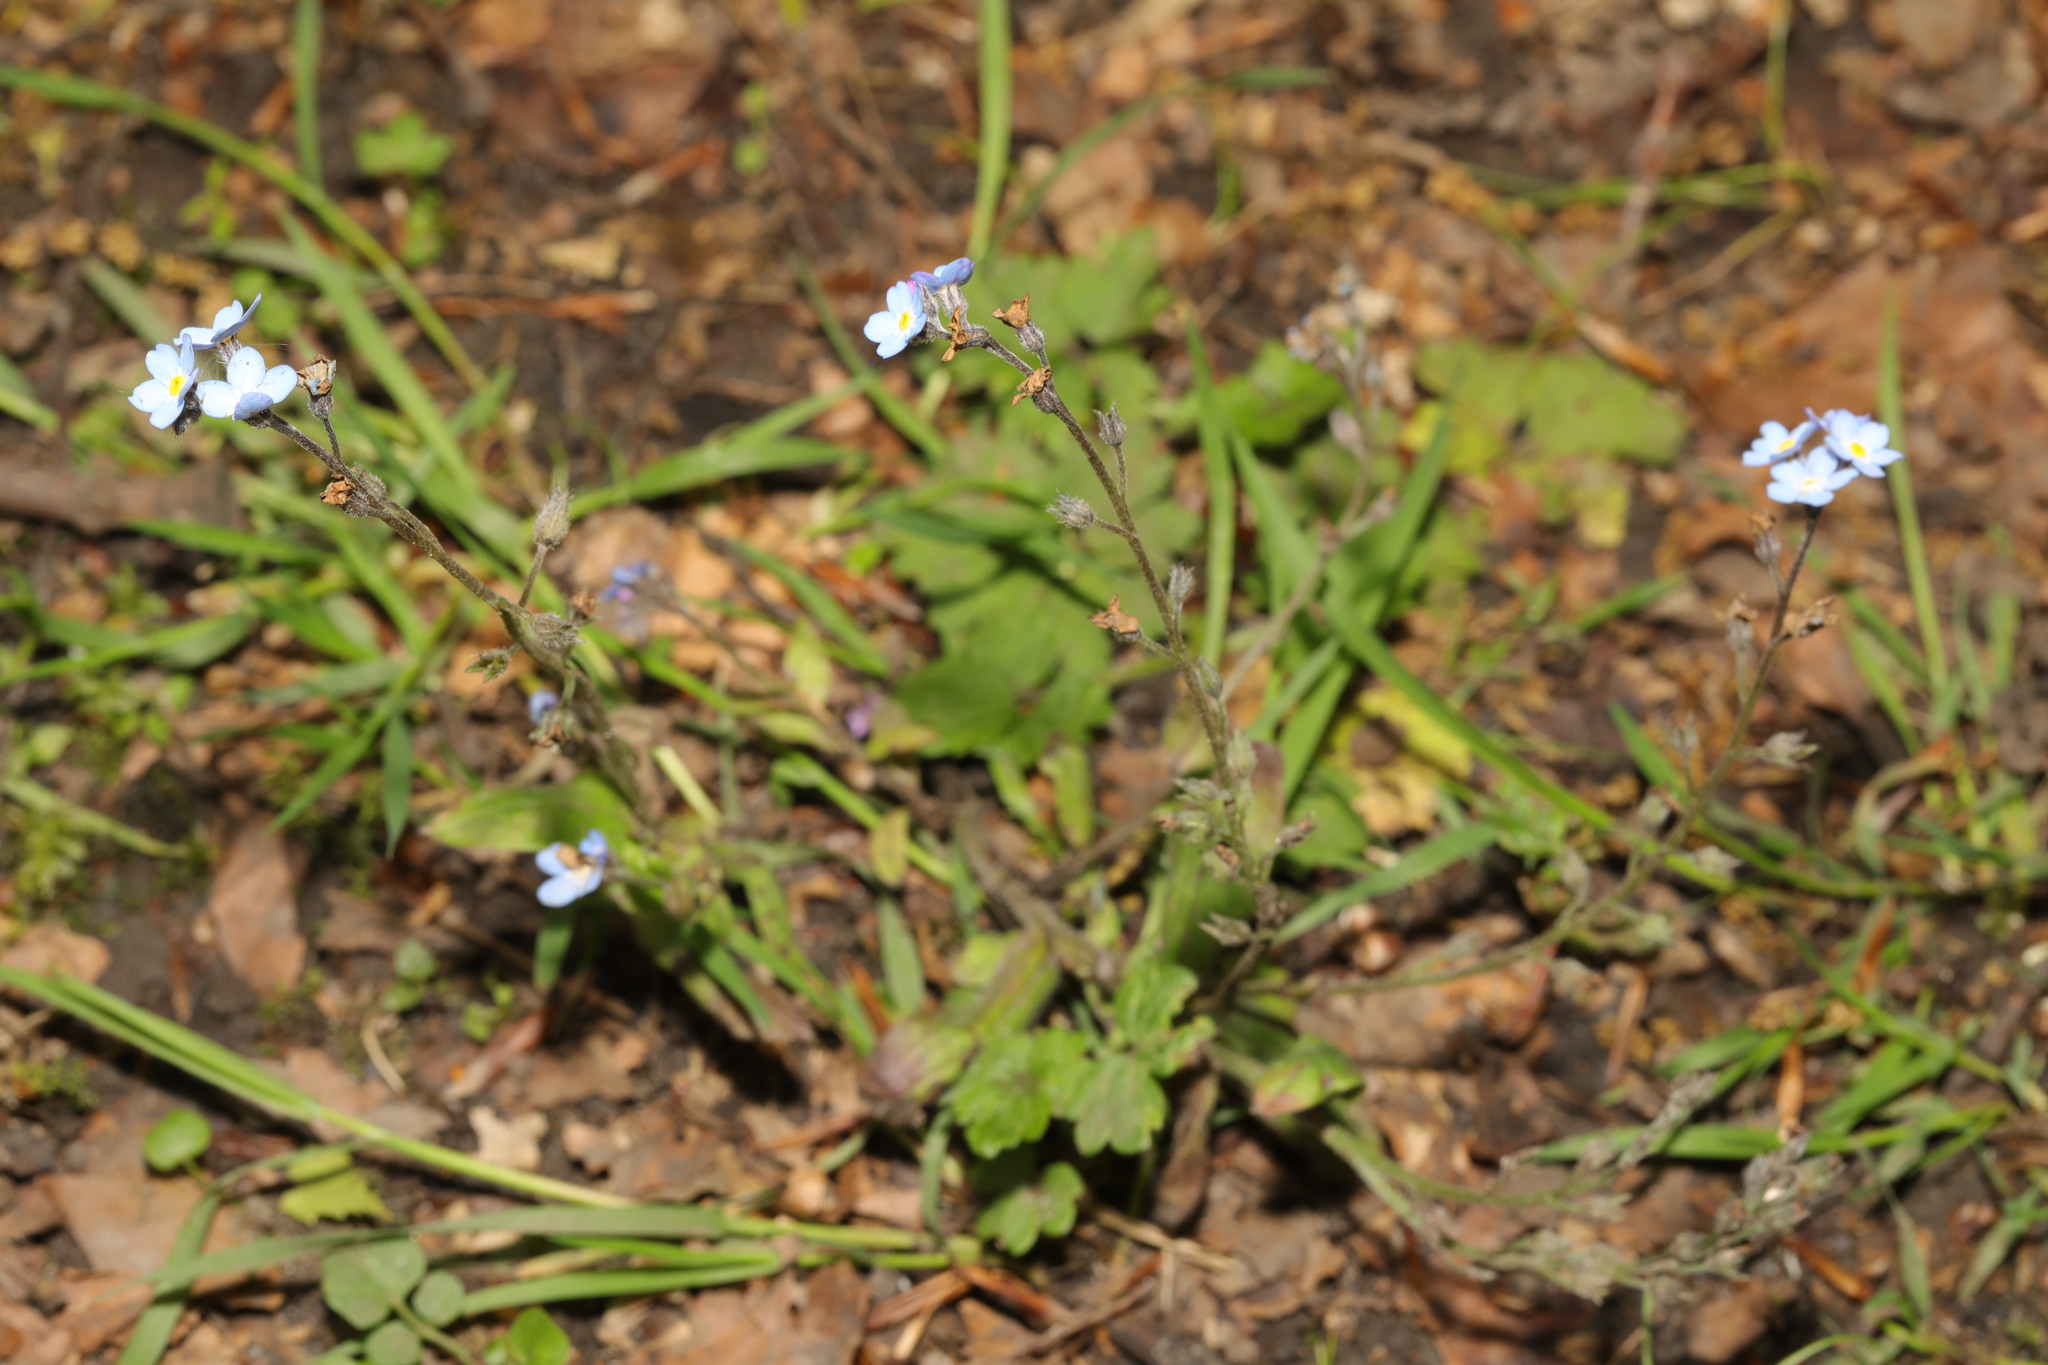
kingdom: Plantae
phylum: Tracheophyta
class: Magnoliopsida
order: Boraginales
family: Boraginaceae
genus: Myosotis
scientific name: Myosotis sylvatica
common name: Wood forget-me-not
